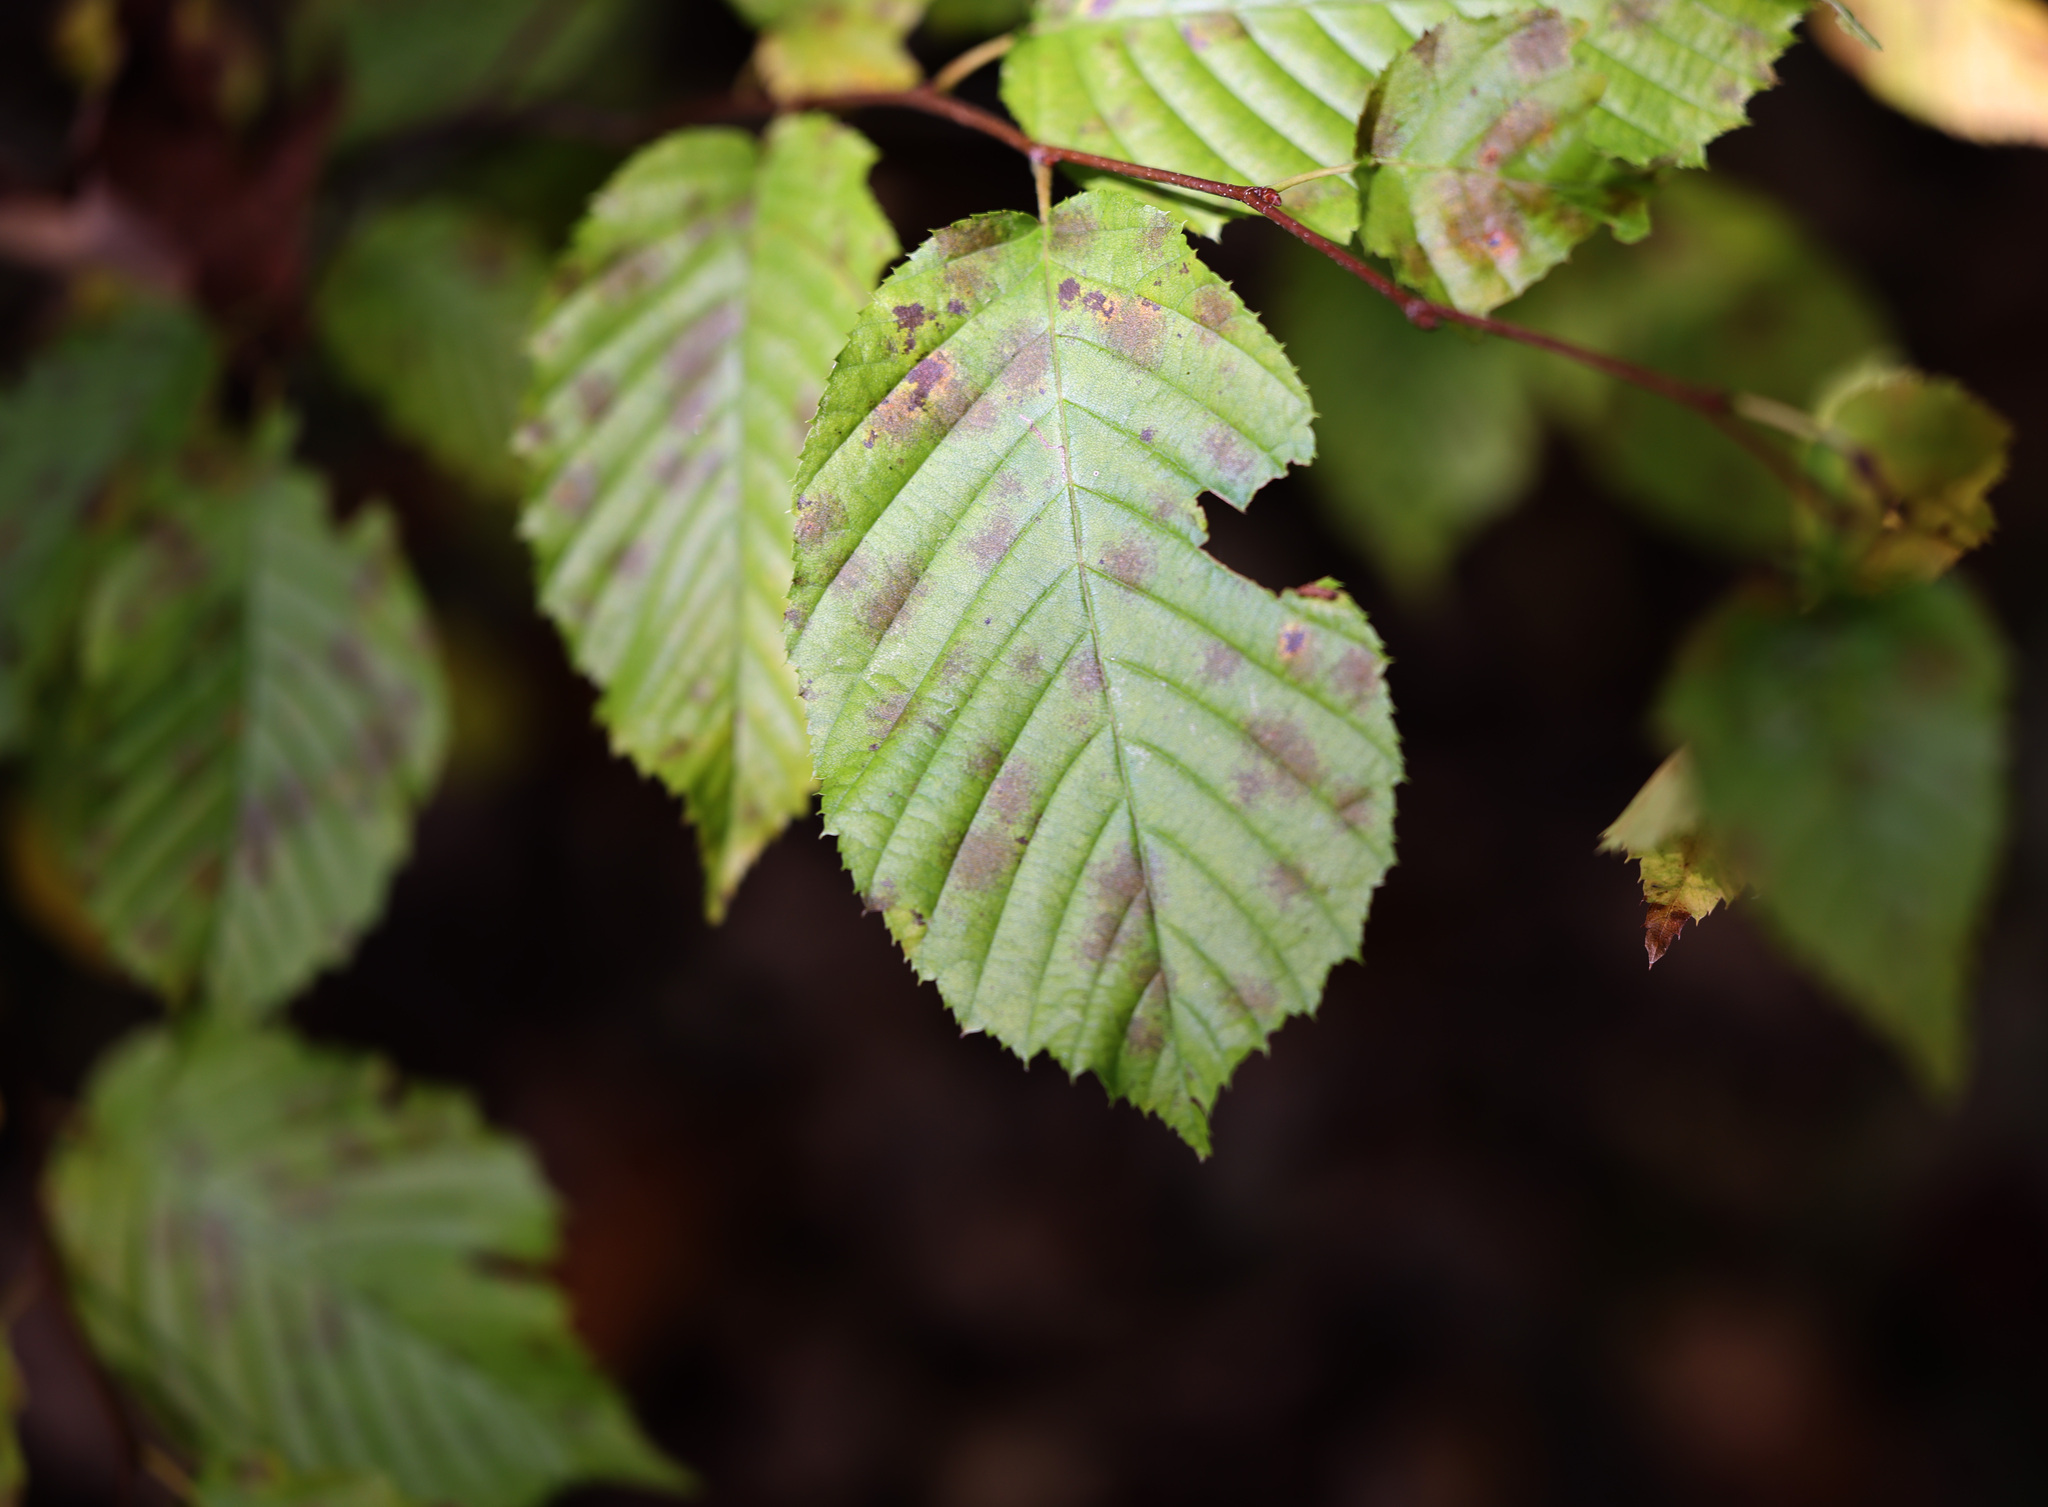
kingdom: Plantae
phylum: Tracheophyta
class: Magnoliopsida
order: Fagales
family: Betulaceae
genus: Carpinus
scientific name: Carpinus caroliniana
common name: American hornbeam
